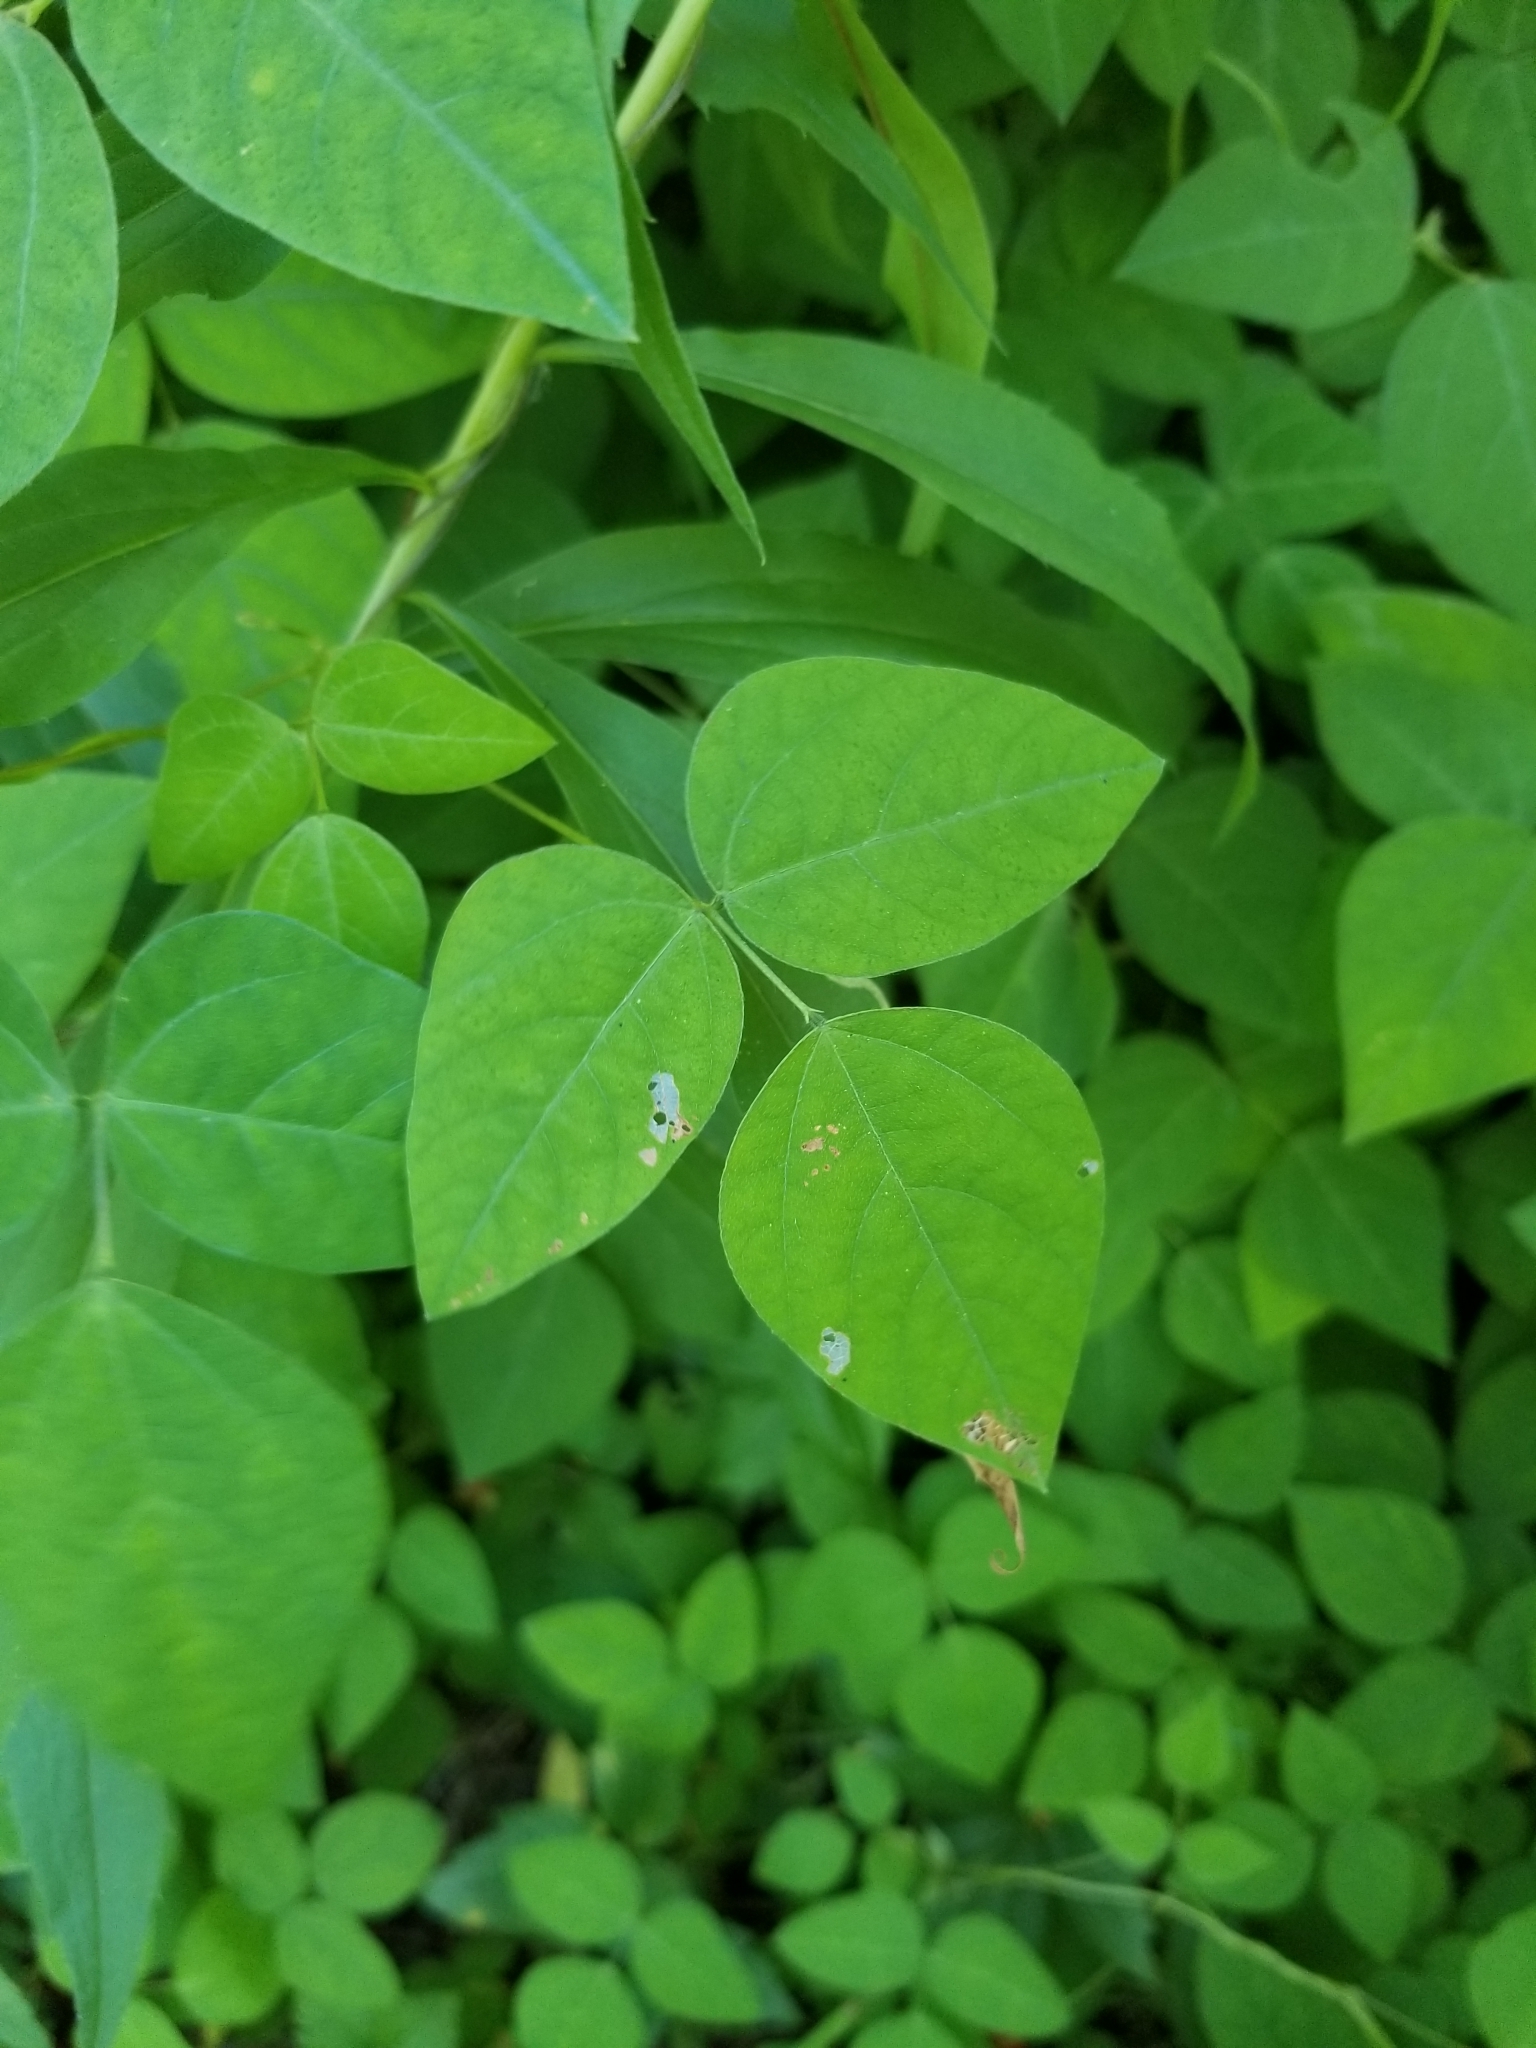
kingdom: Plantae
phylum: Tracheophyta
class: Magnoliopsida
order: Fabales
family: Fabaceae
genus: Amphicarpaea
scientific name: Amphicarpaea bracteata
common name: American hog peanut
